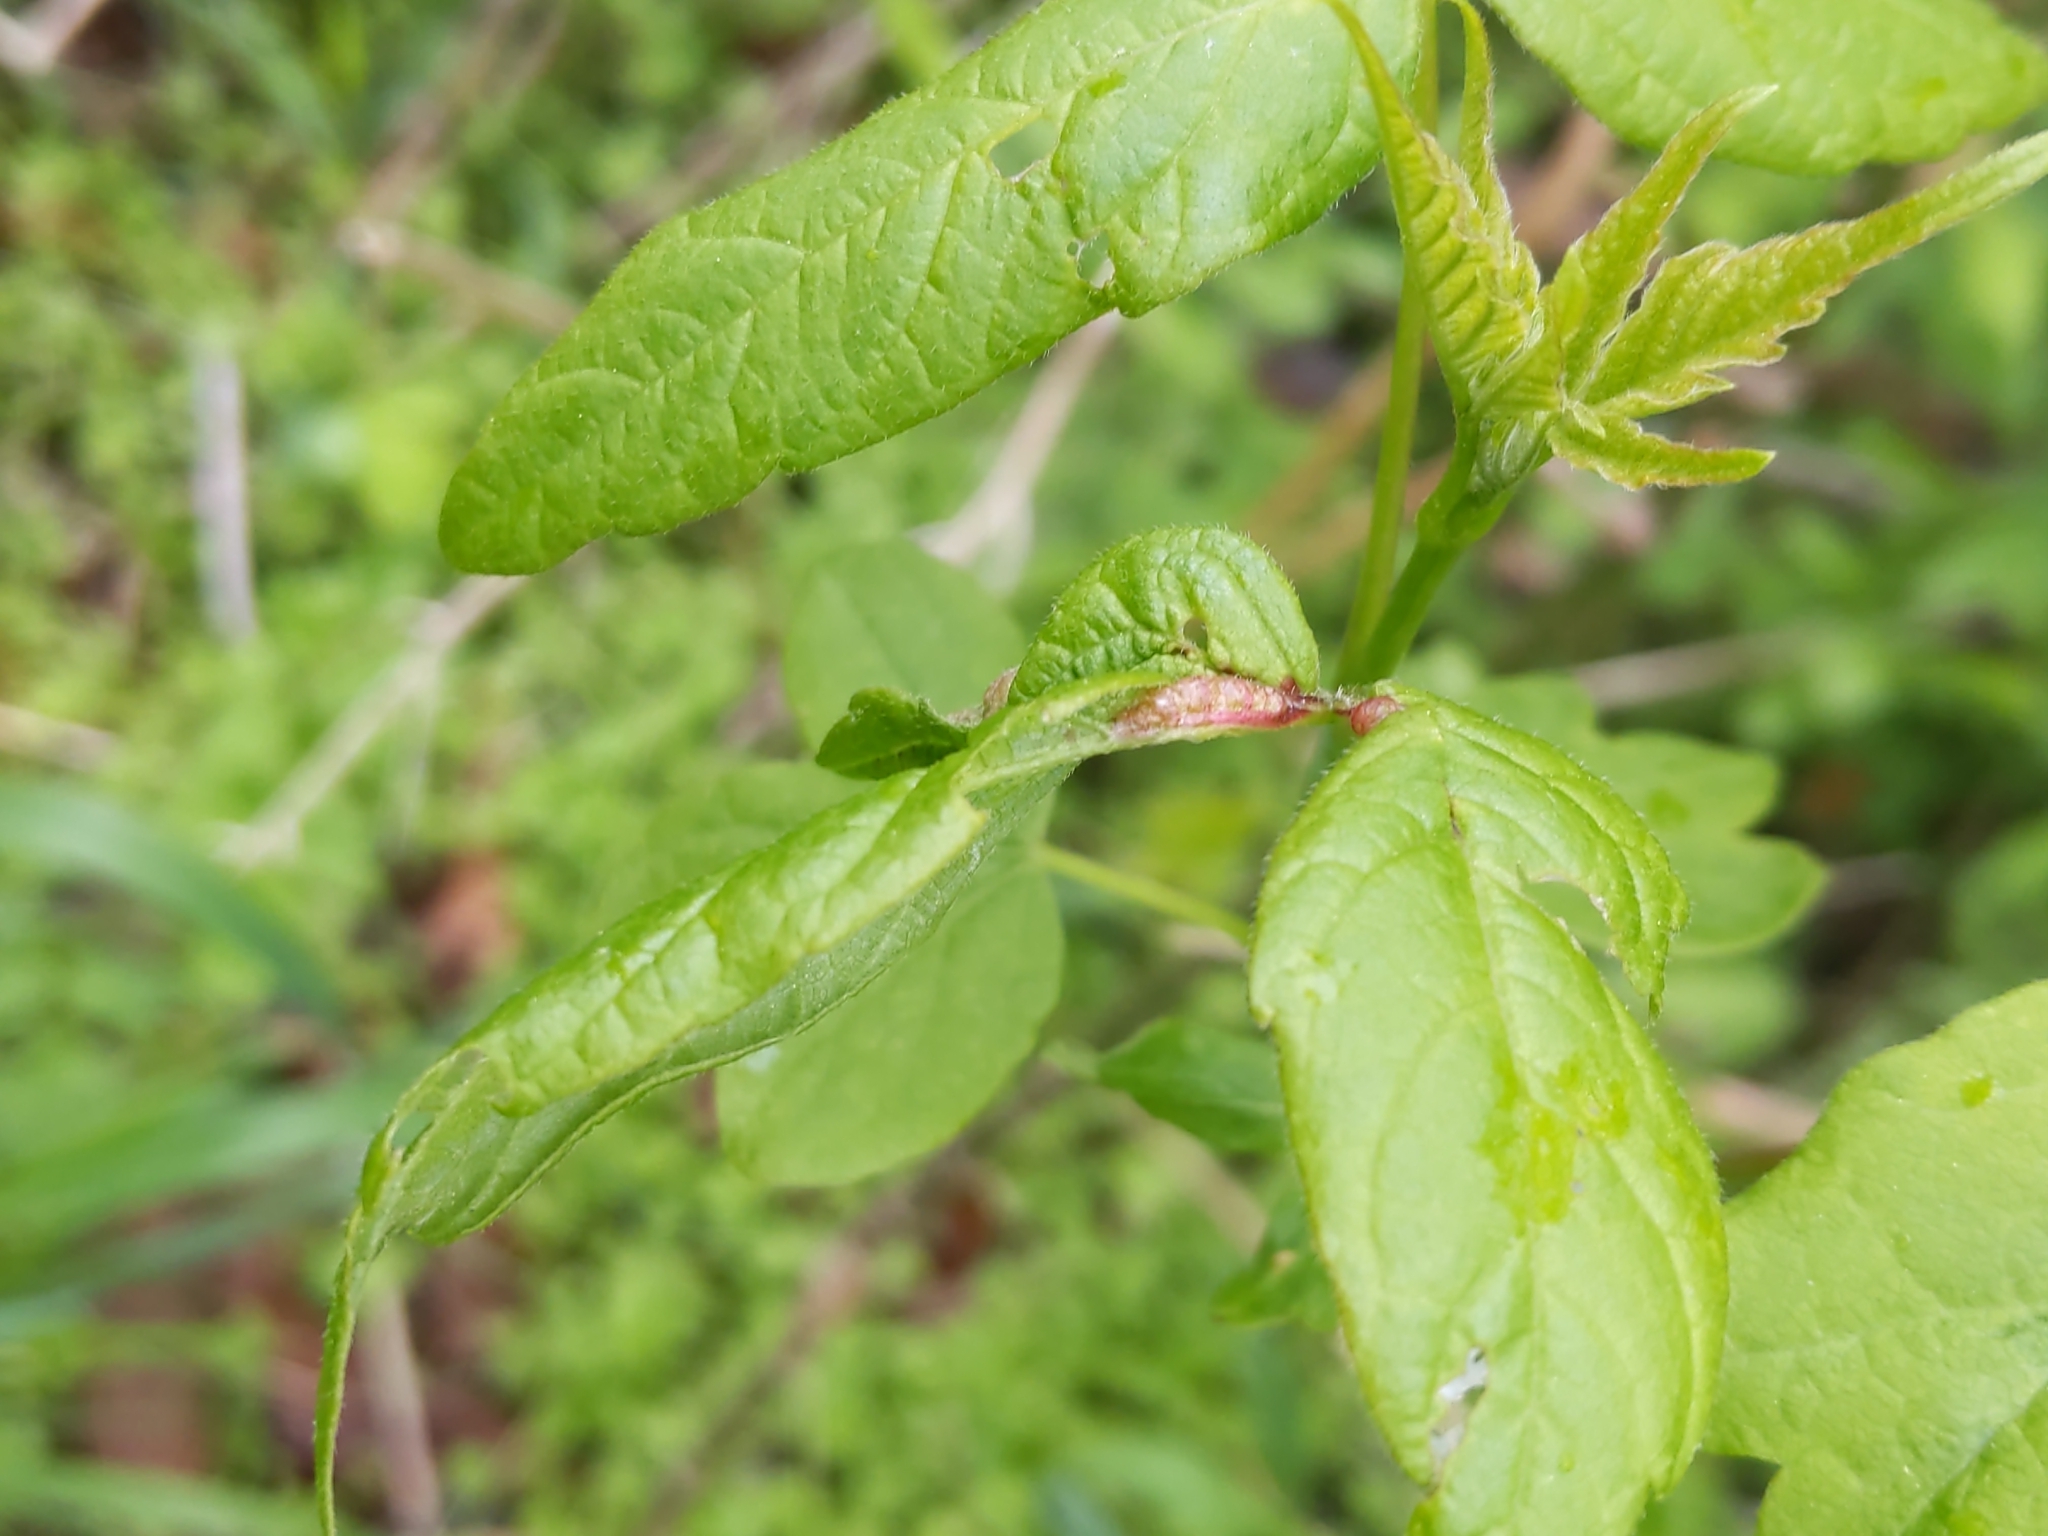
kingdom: Animalia
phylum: Arthropoda
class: Arachnida
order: Trombidiformes
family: Eriophyidae
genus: Aceria
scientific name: Aceria
